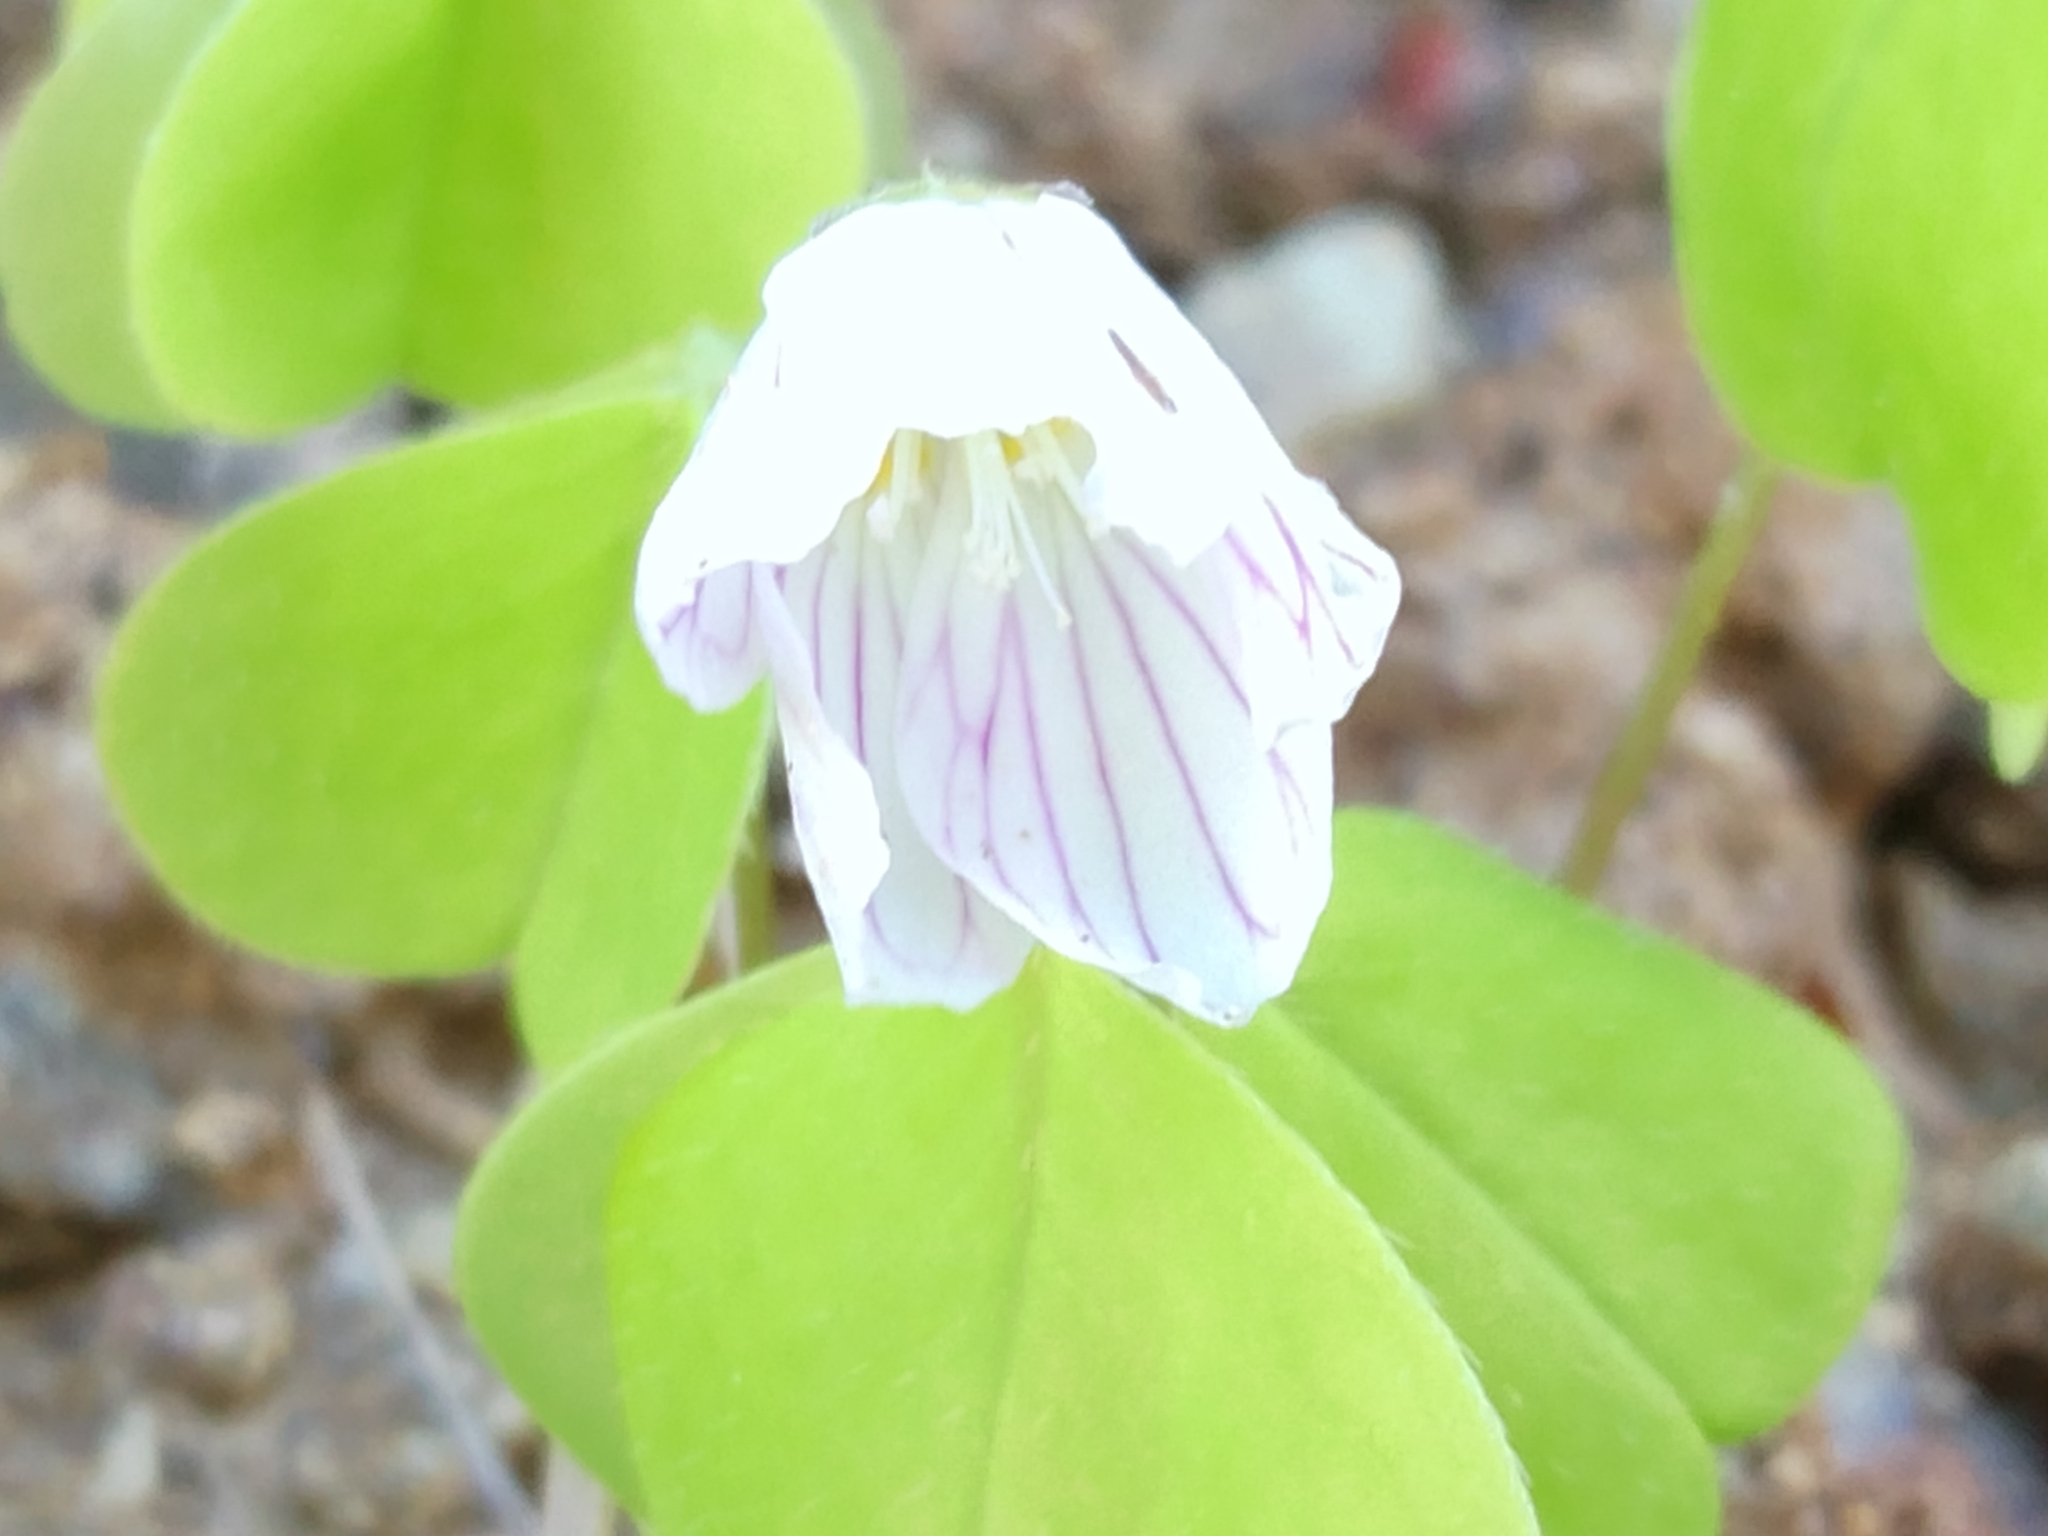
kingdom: Plantae
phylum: Tracheophyta
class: Magnoliopsida
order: Oxalidales
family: Oxalidaceae
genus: Oxalis
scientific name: Oxalis acetosella
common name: Wood-sorrel
